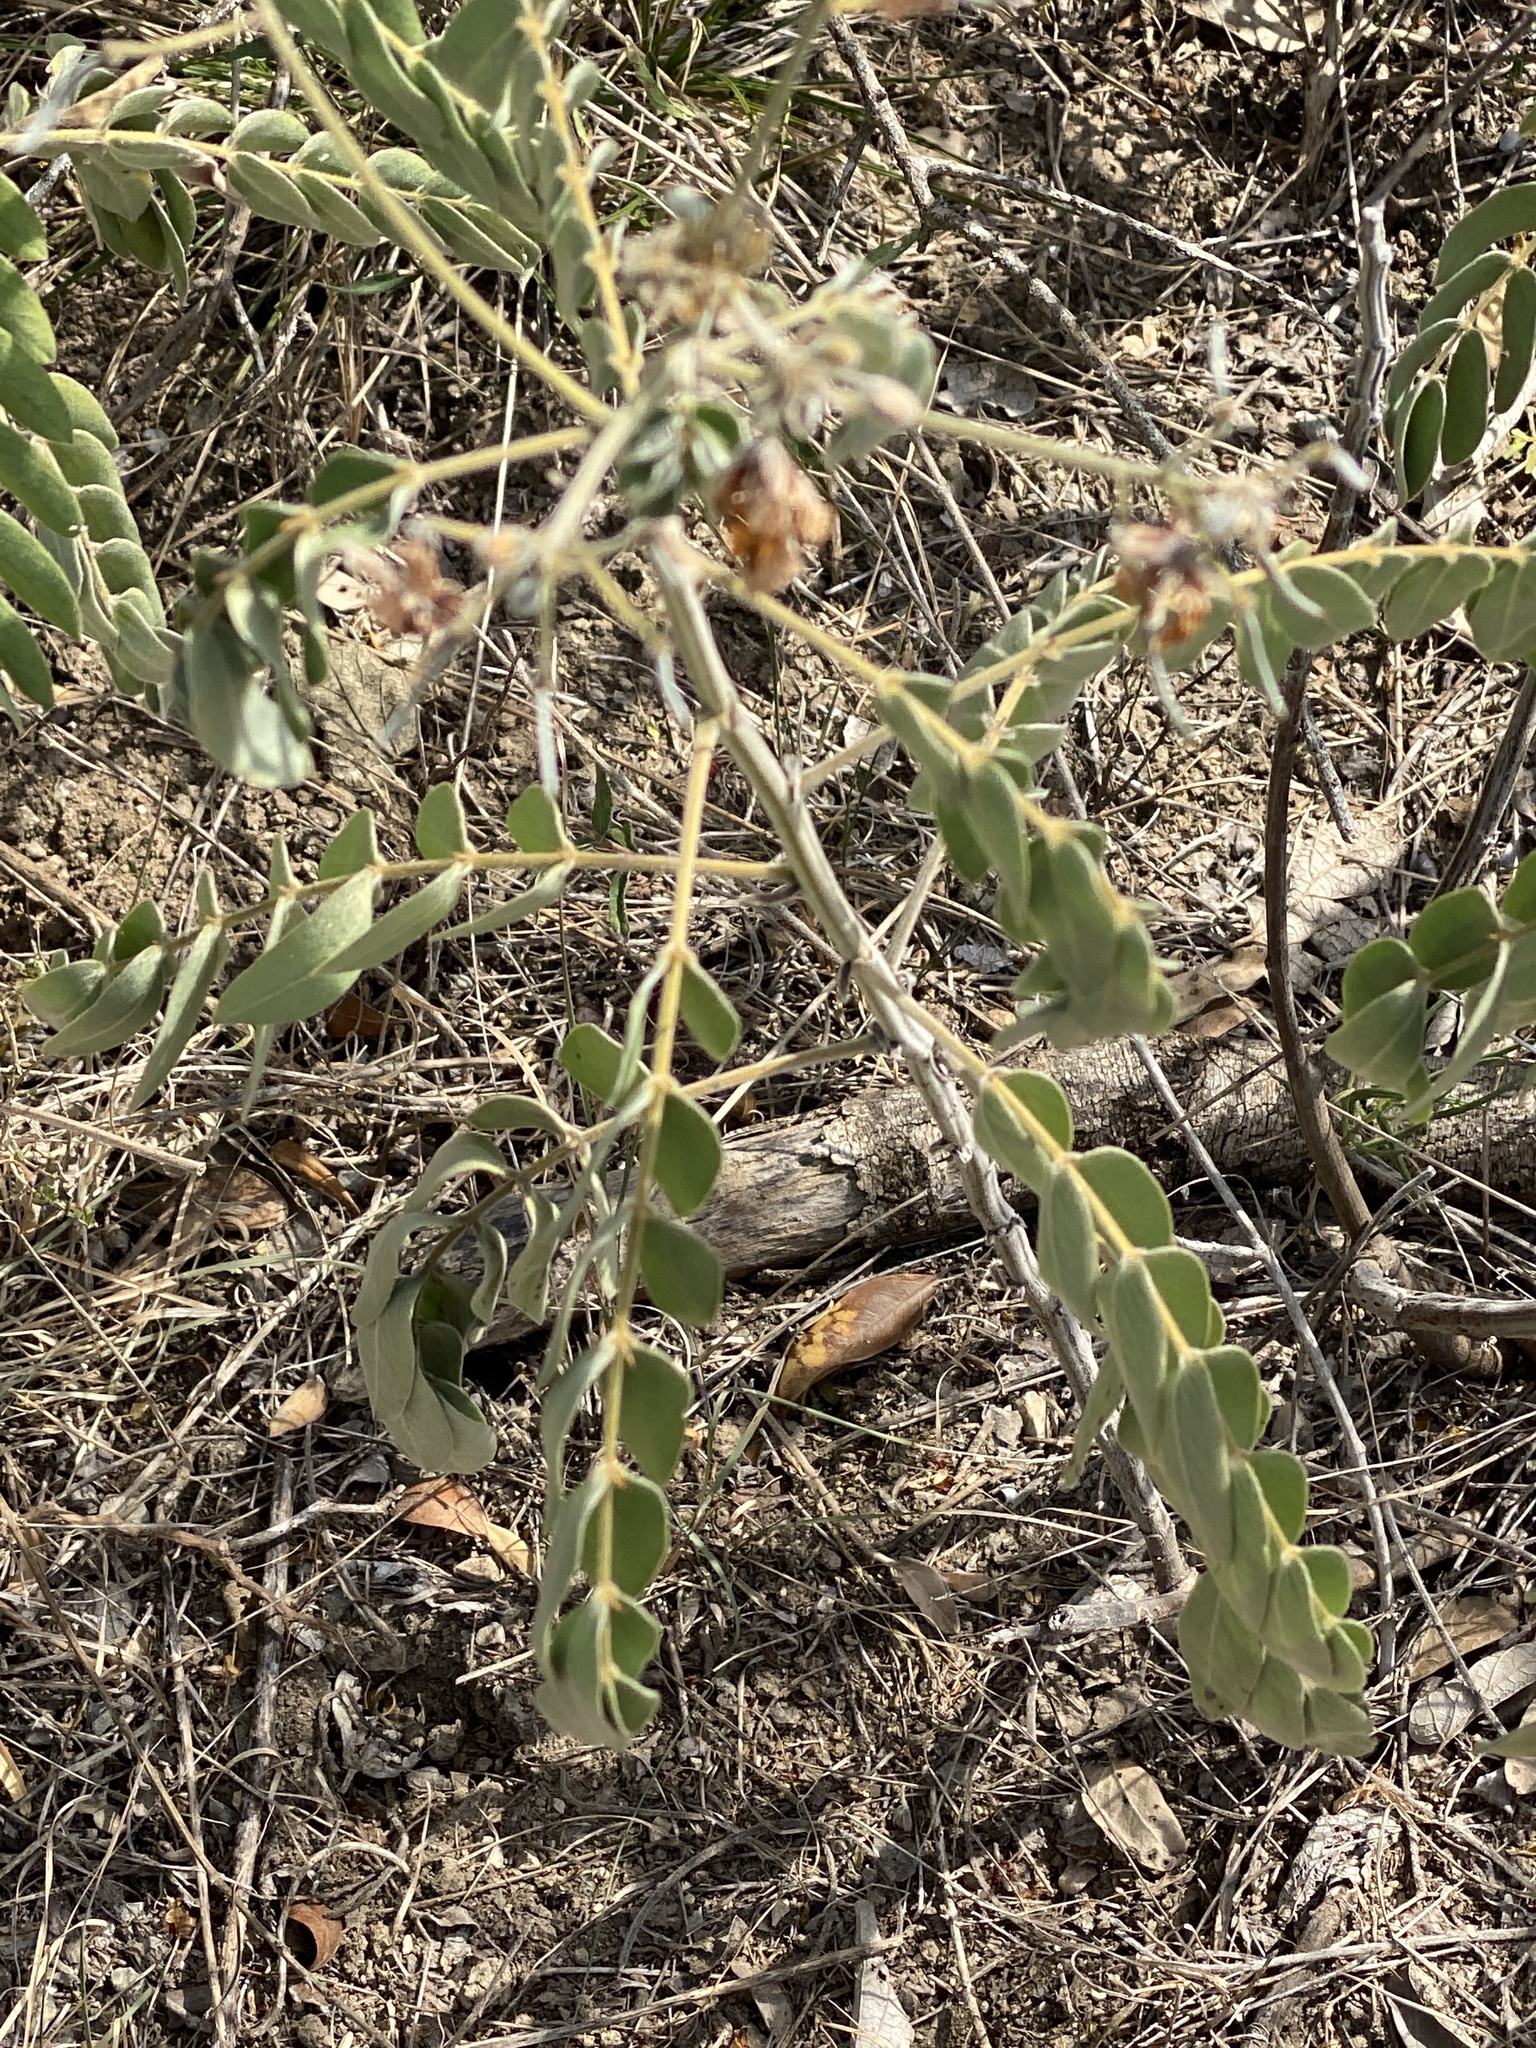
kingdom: Plantae
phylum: Tracheophyta
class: Magnoliopsida
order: Fabales
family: Fabaceae
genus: Senna
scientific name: Senna lindheimeriana
